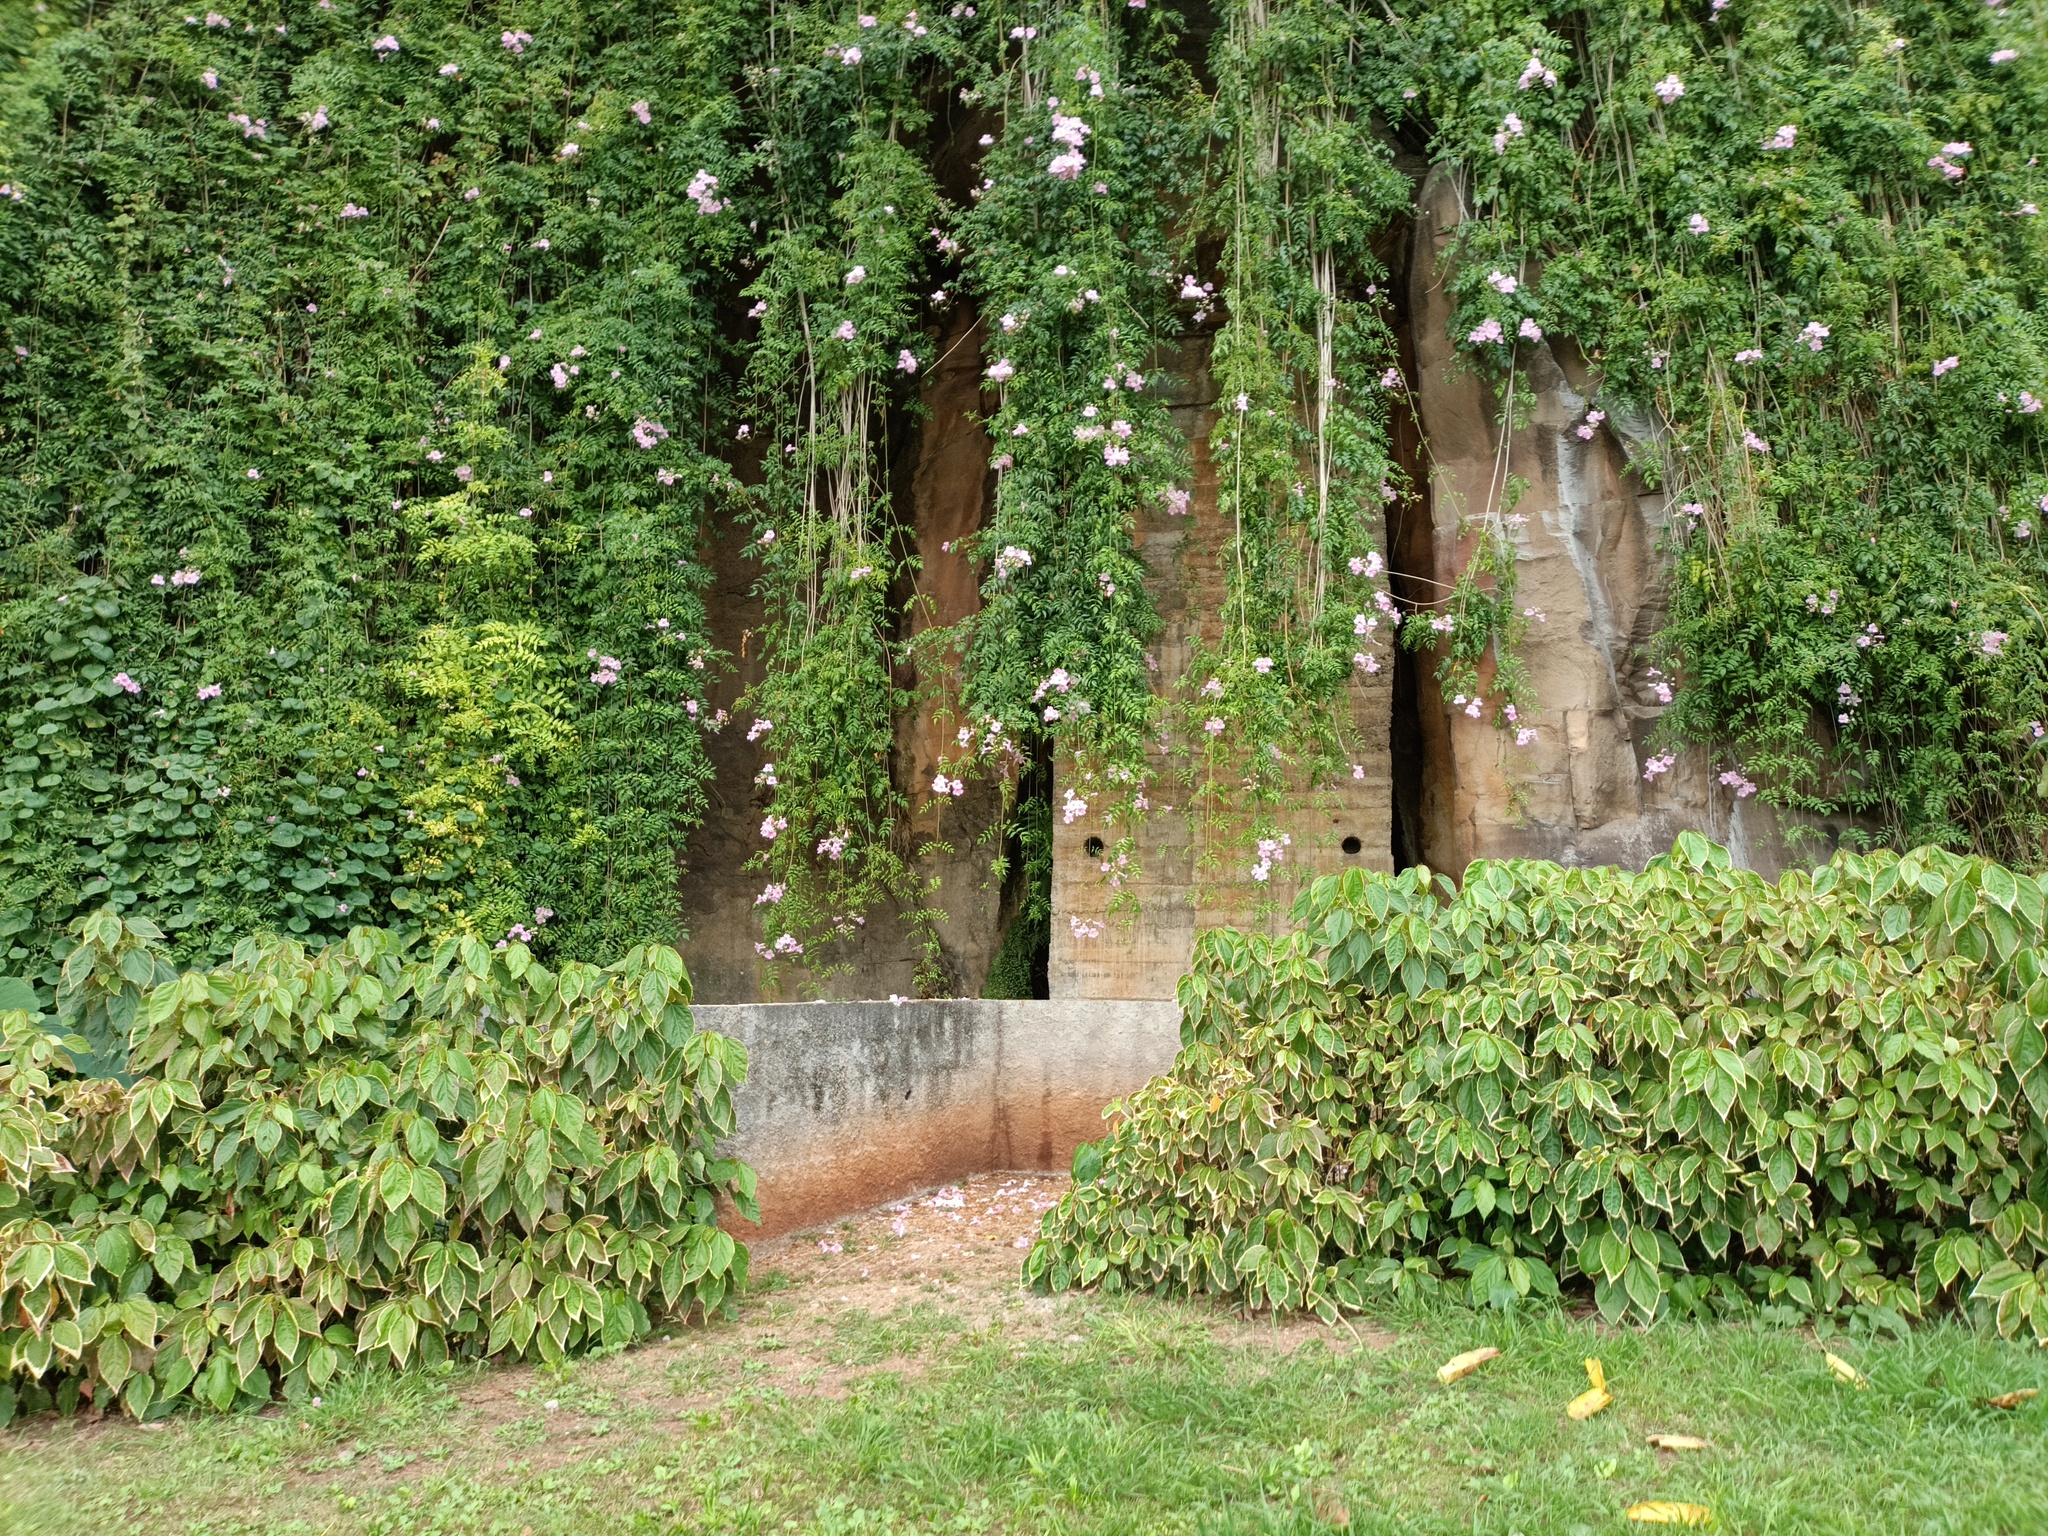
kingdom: Plantae
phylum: Tracheophyta
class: Magnoliopsida
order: Lamiales
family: Bignoniaceae
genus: Podranea
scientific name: Podranea ricasoliana
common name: Zimbabwe creeper
